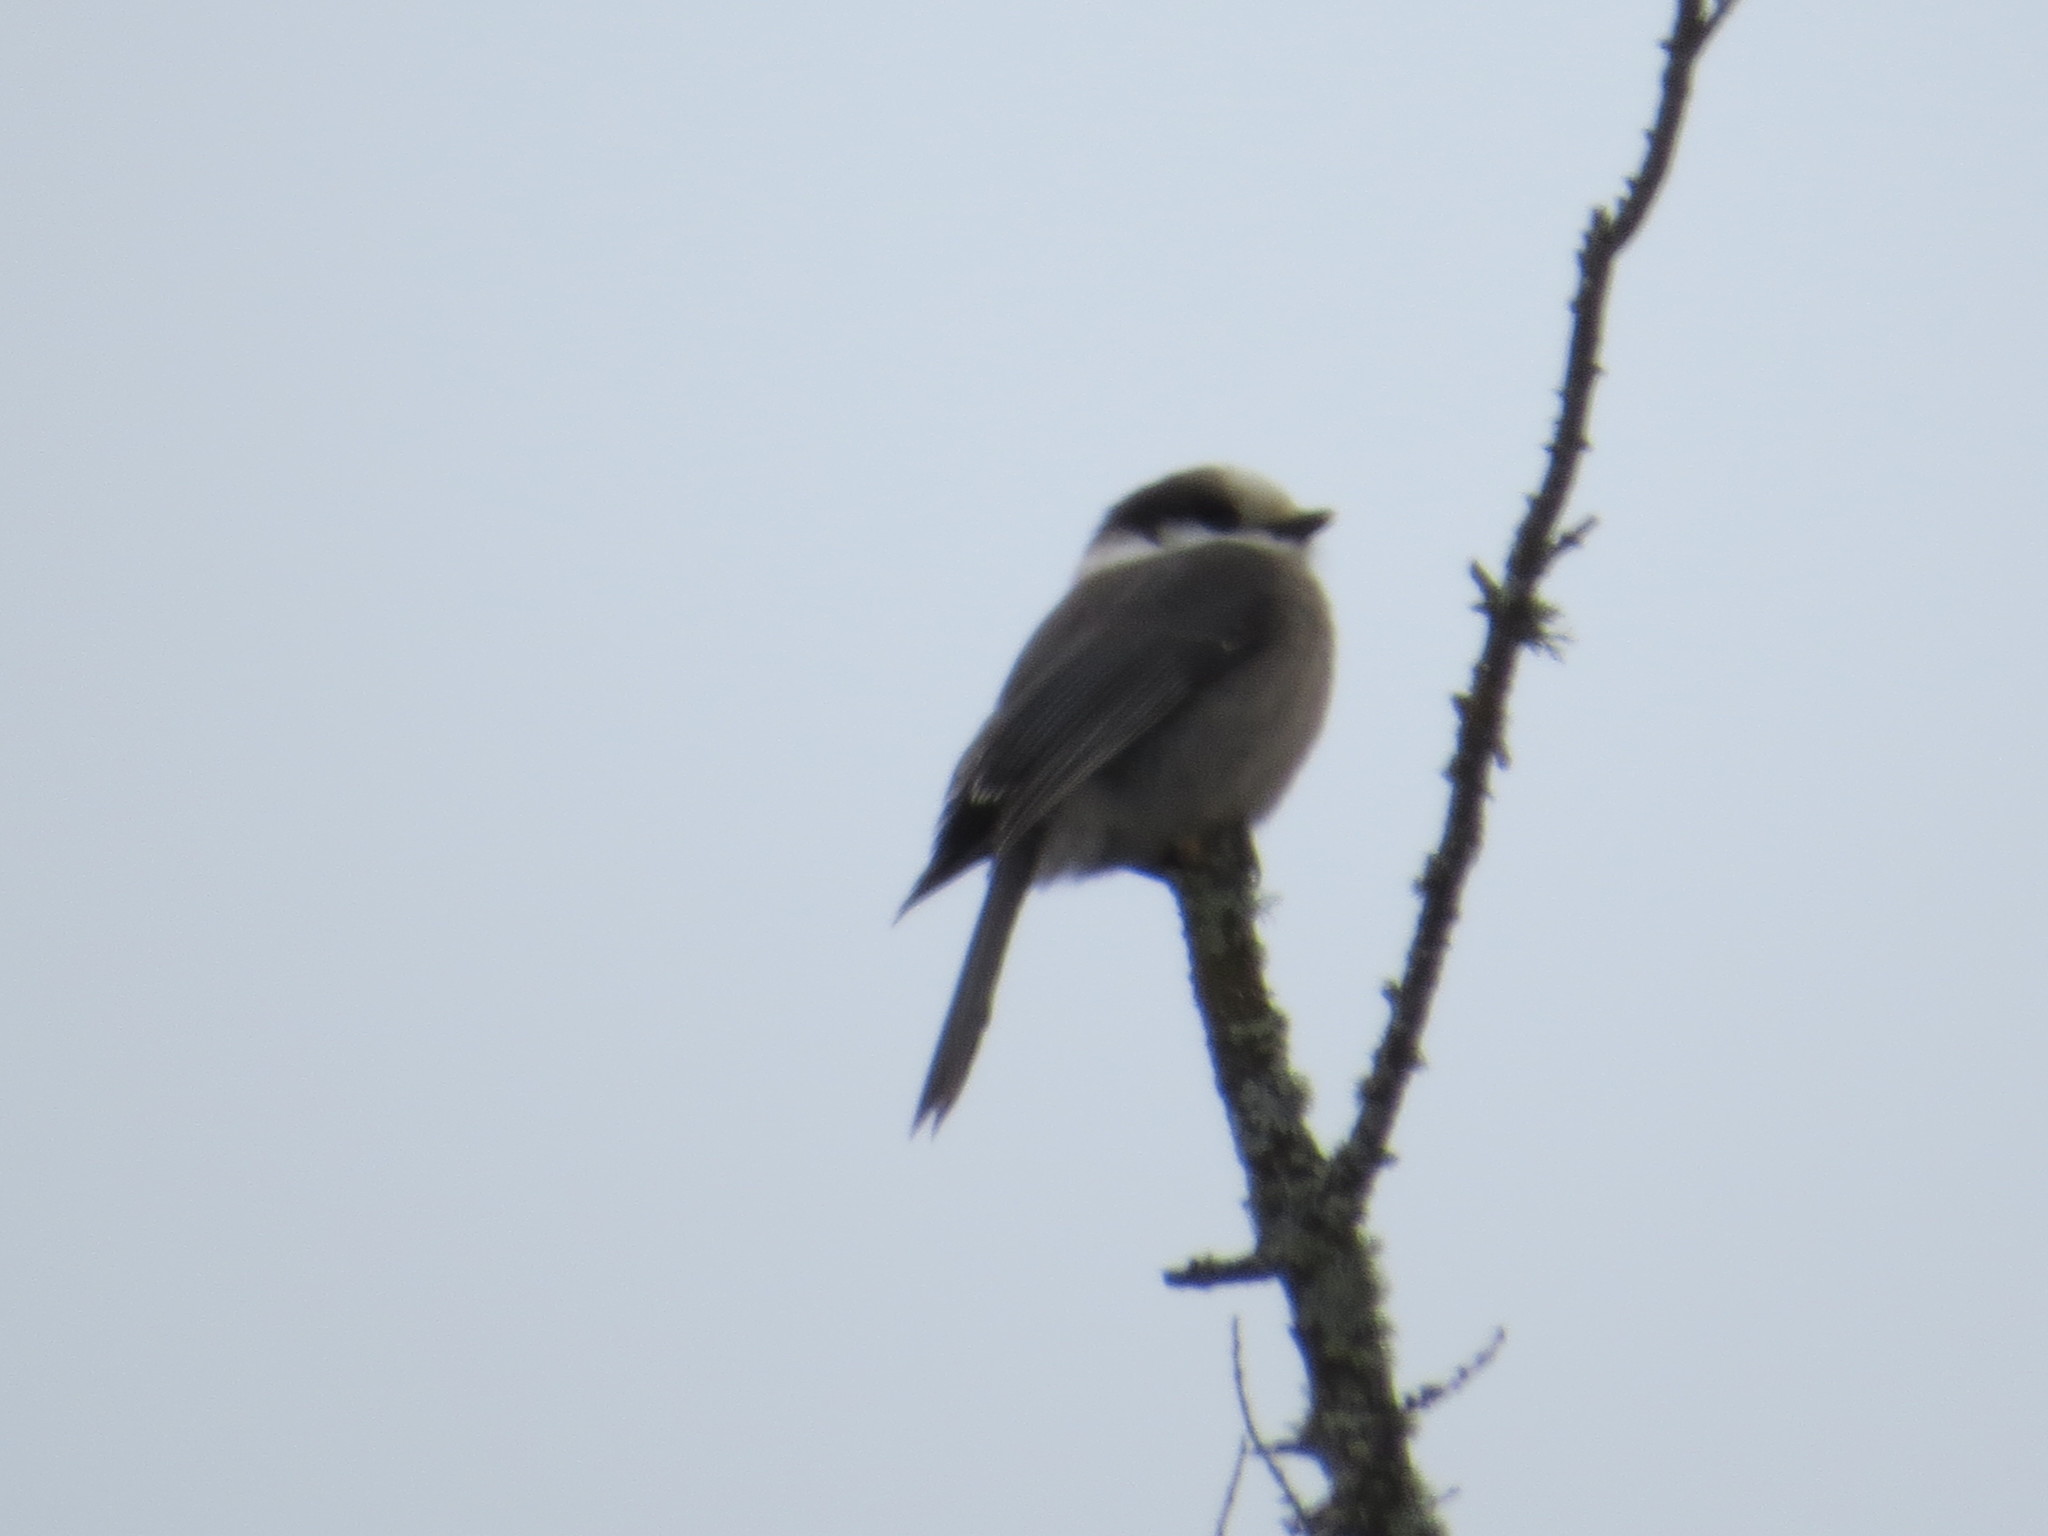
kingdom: Animalia
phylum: Chordata
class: Aves
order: Passeriformes
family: Corvidae
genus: Perisoreus
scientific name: Perisoreus canadensis
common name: Gray jay
